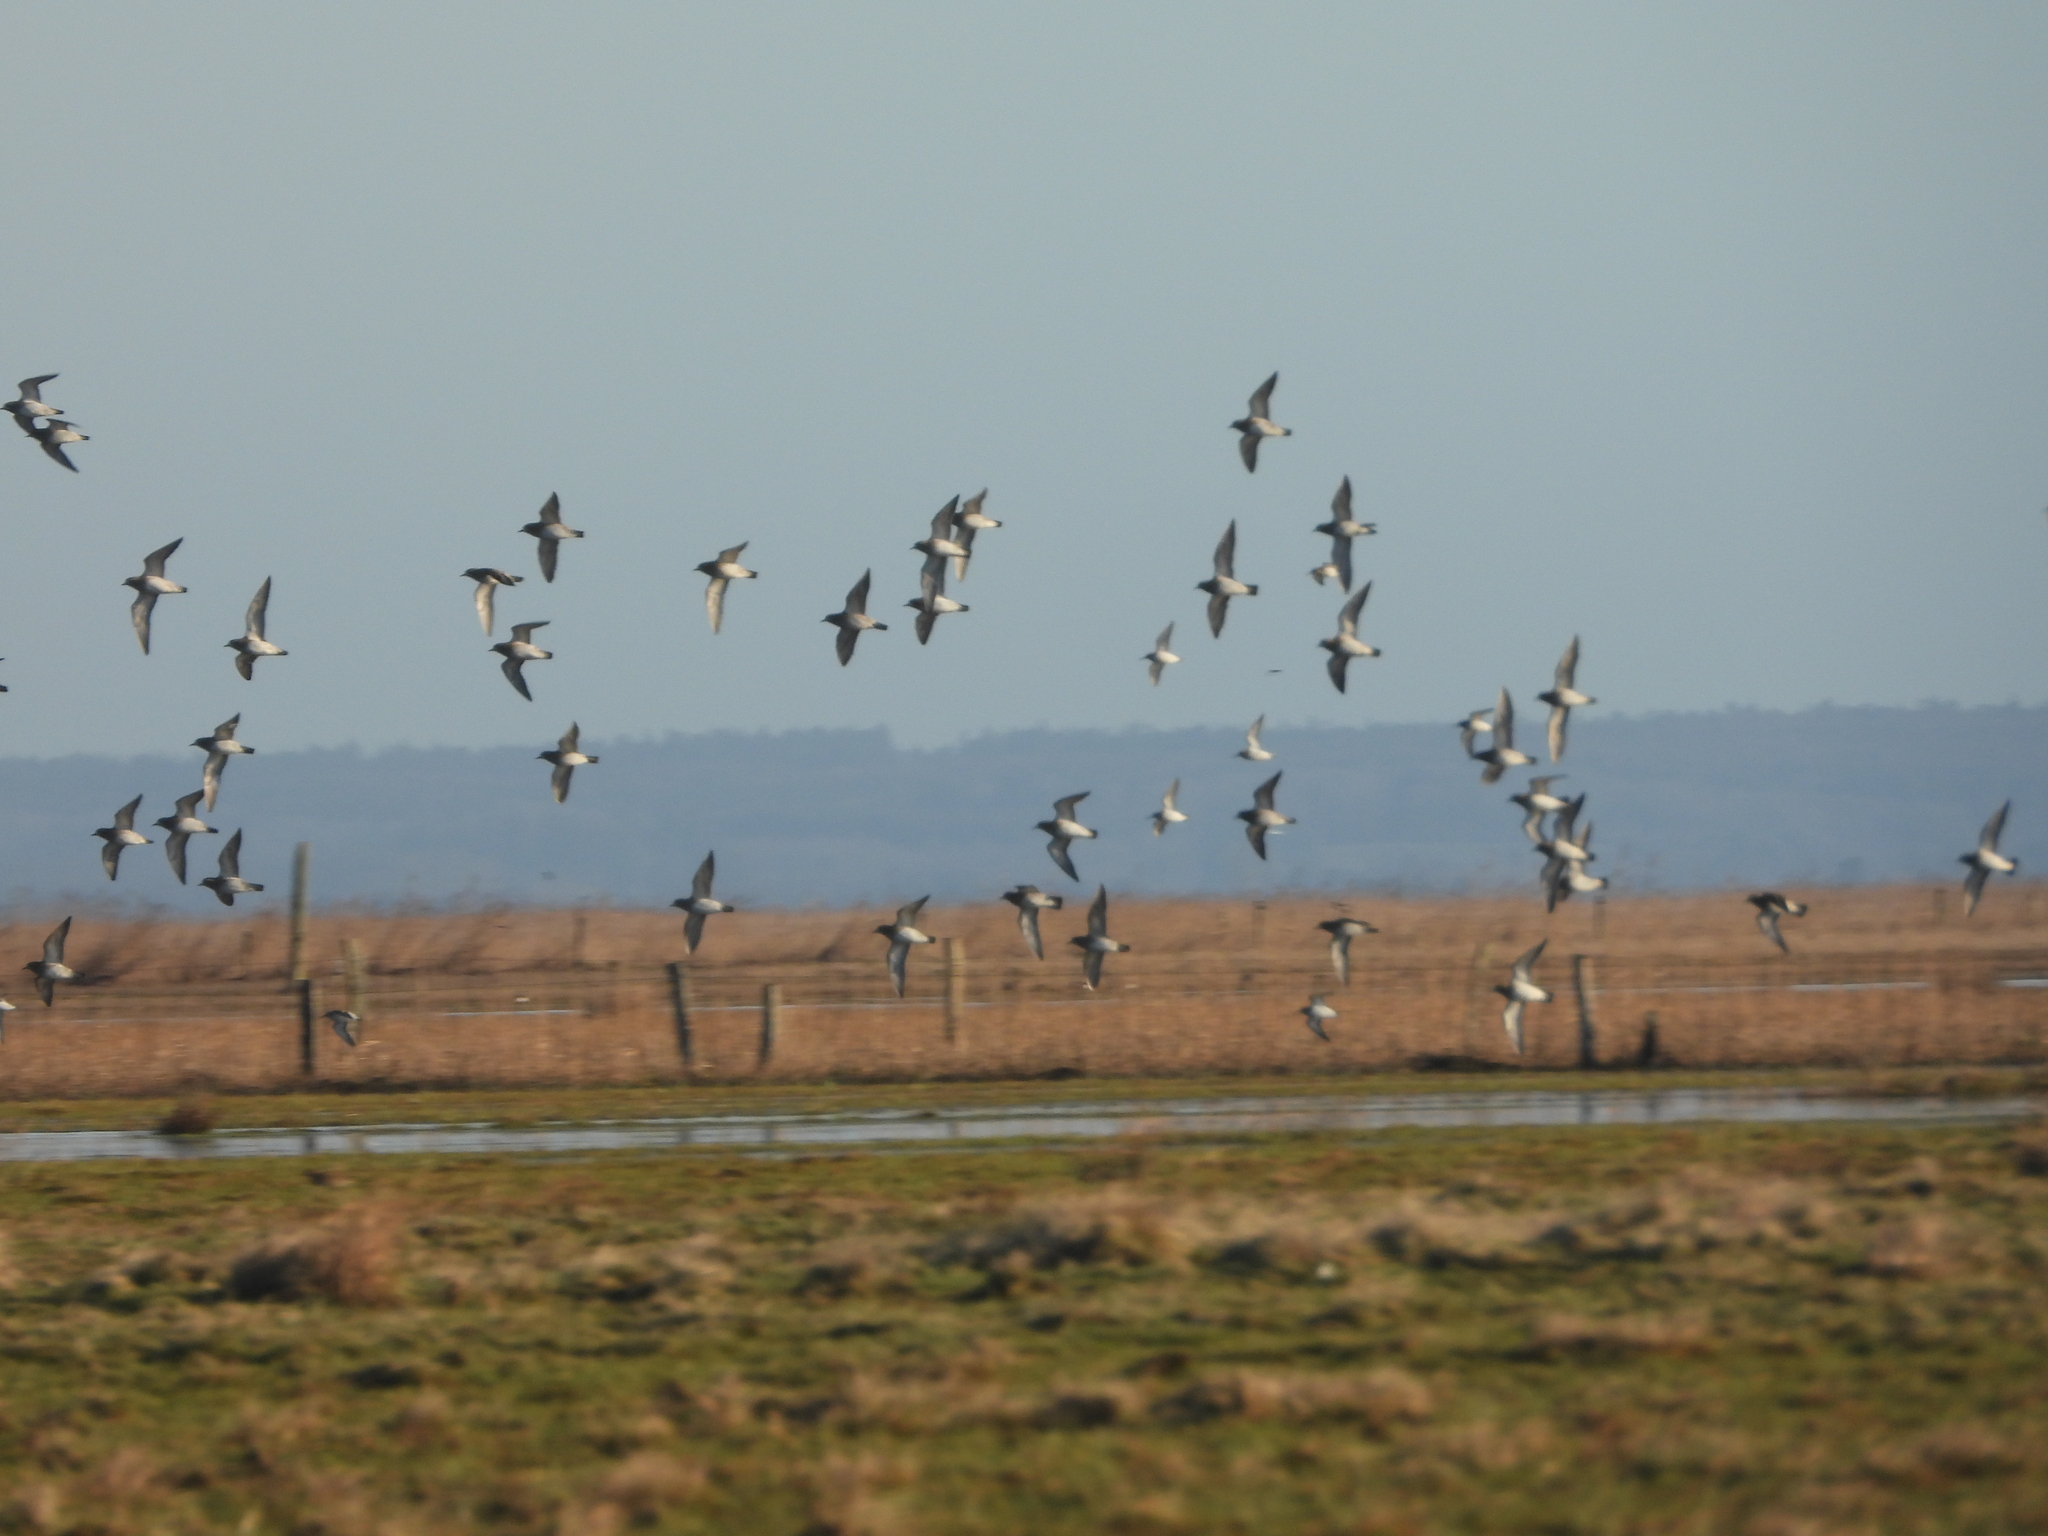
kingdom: Animalia
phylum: Chordata
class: Aves
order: Charadriiformes
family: Charadriidae
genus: Pluvialis
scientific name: Pluvialis apricaria
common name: European golden plover
